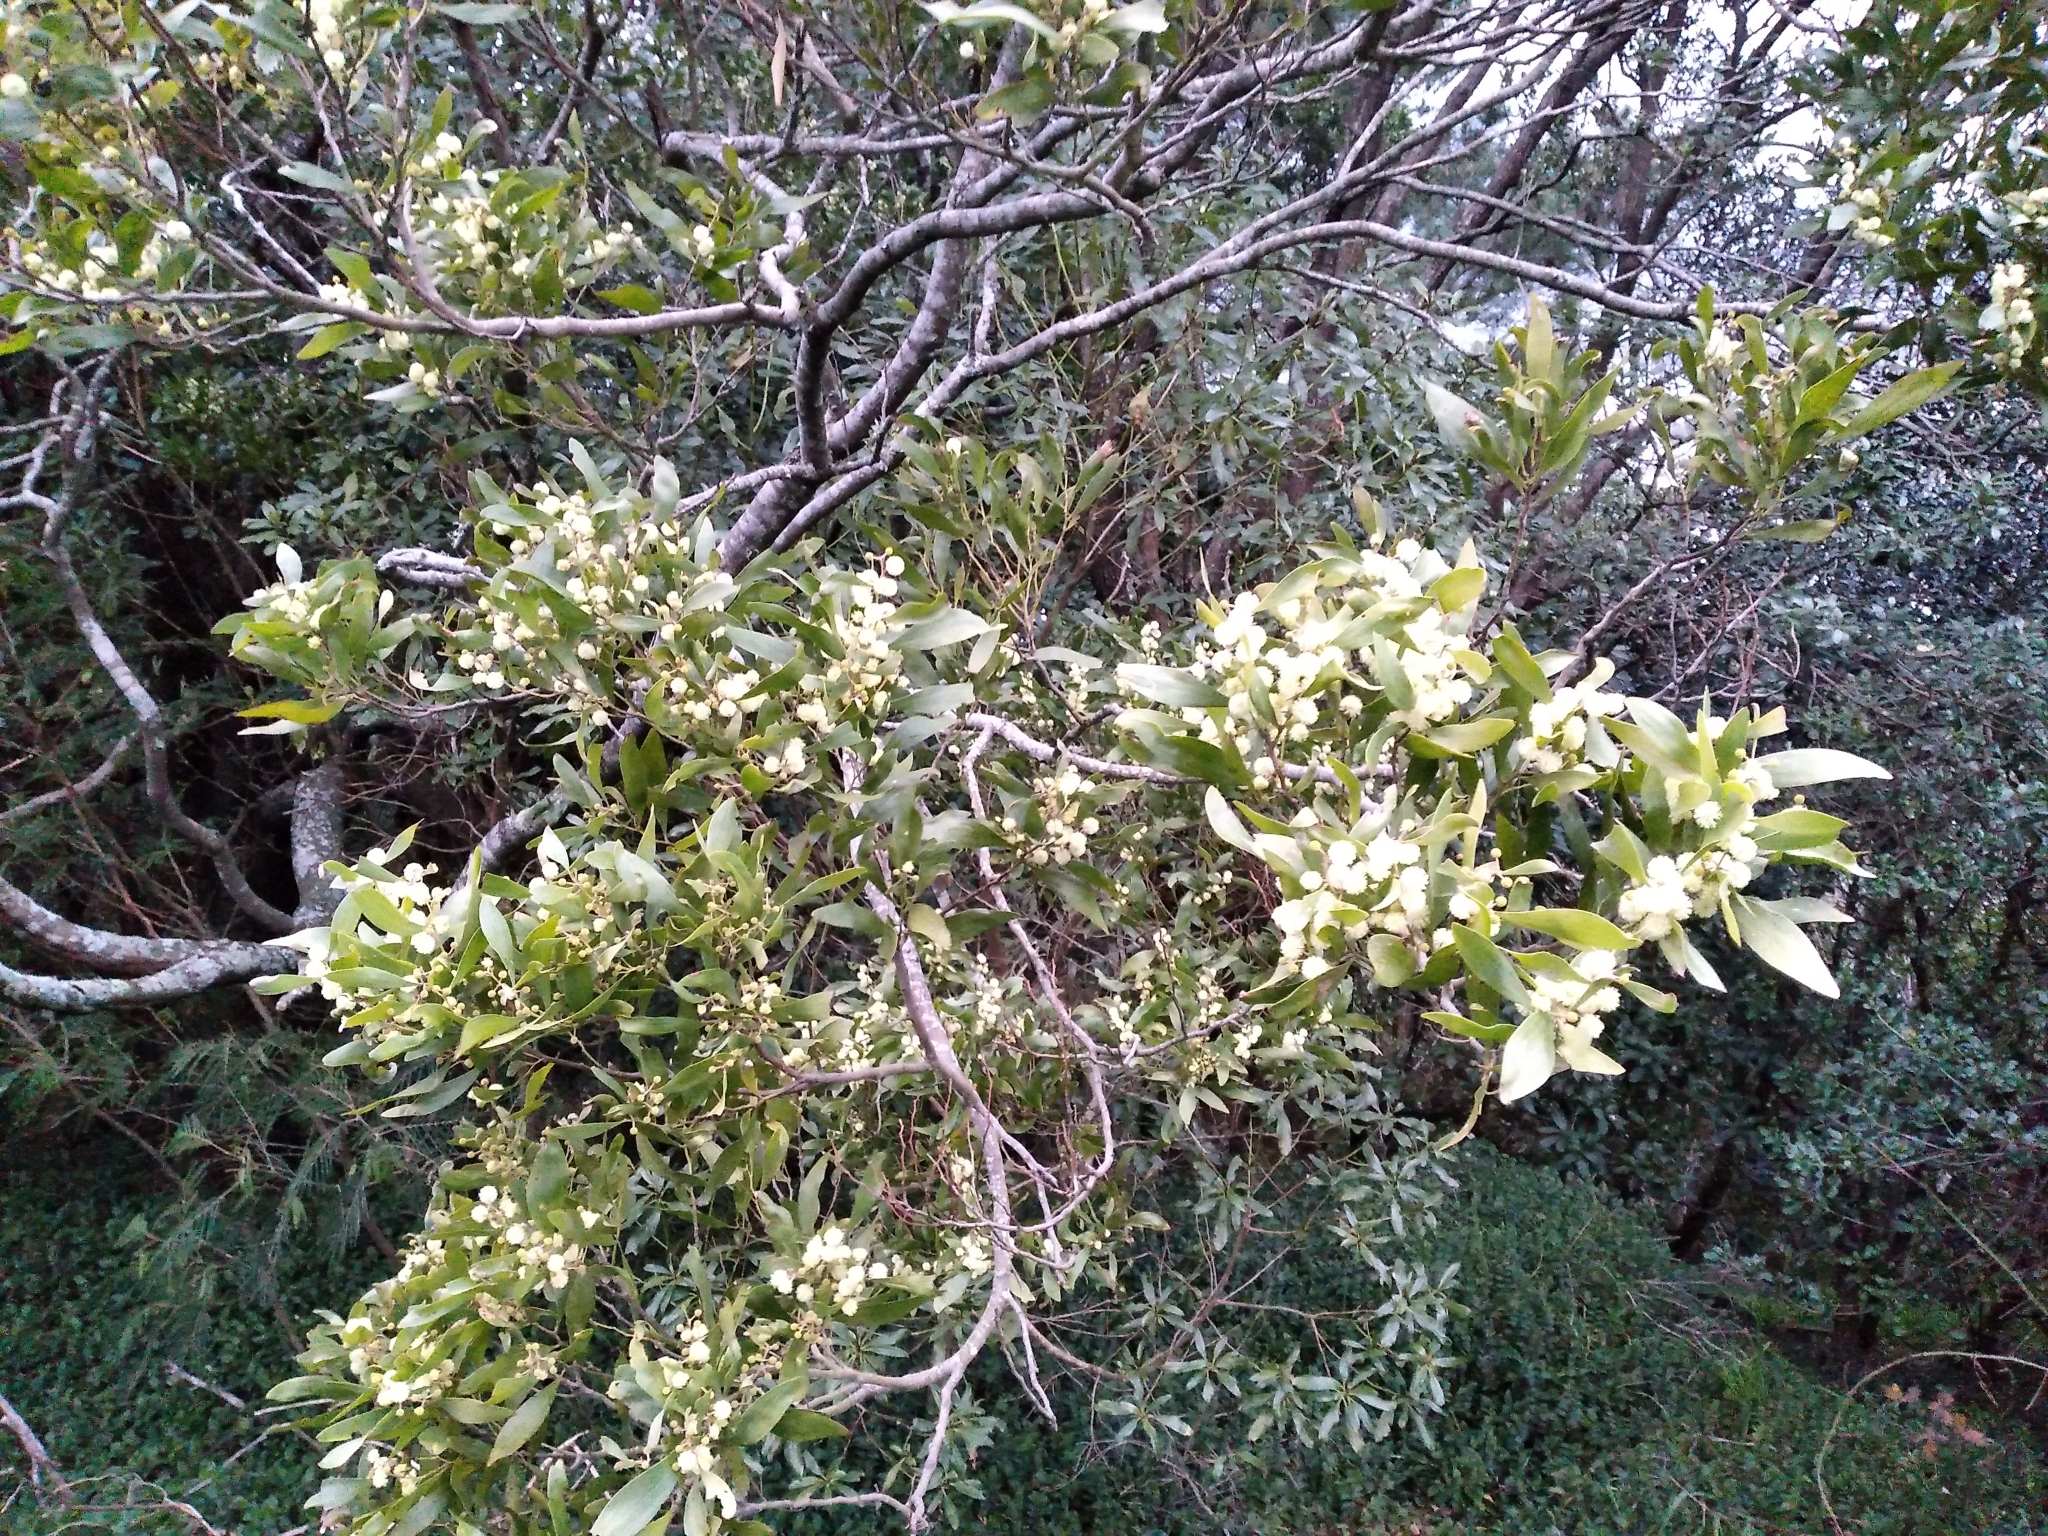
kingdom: Plantae
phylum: Tracheophyta
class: Magnoliopsida
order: Fabales
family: Fabaceae
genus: Acacia
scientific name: Acacia melanoxylon
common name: Blackwood
